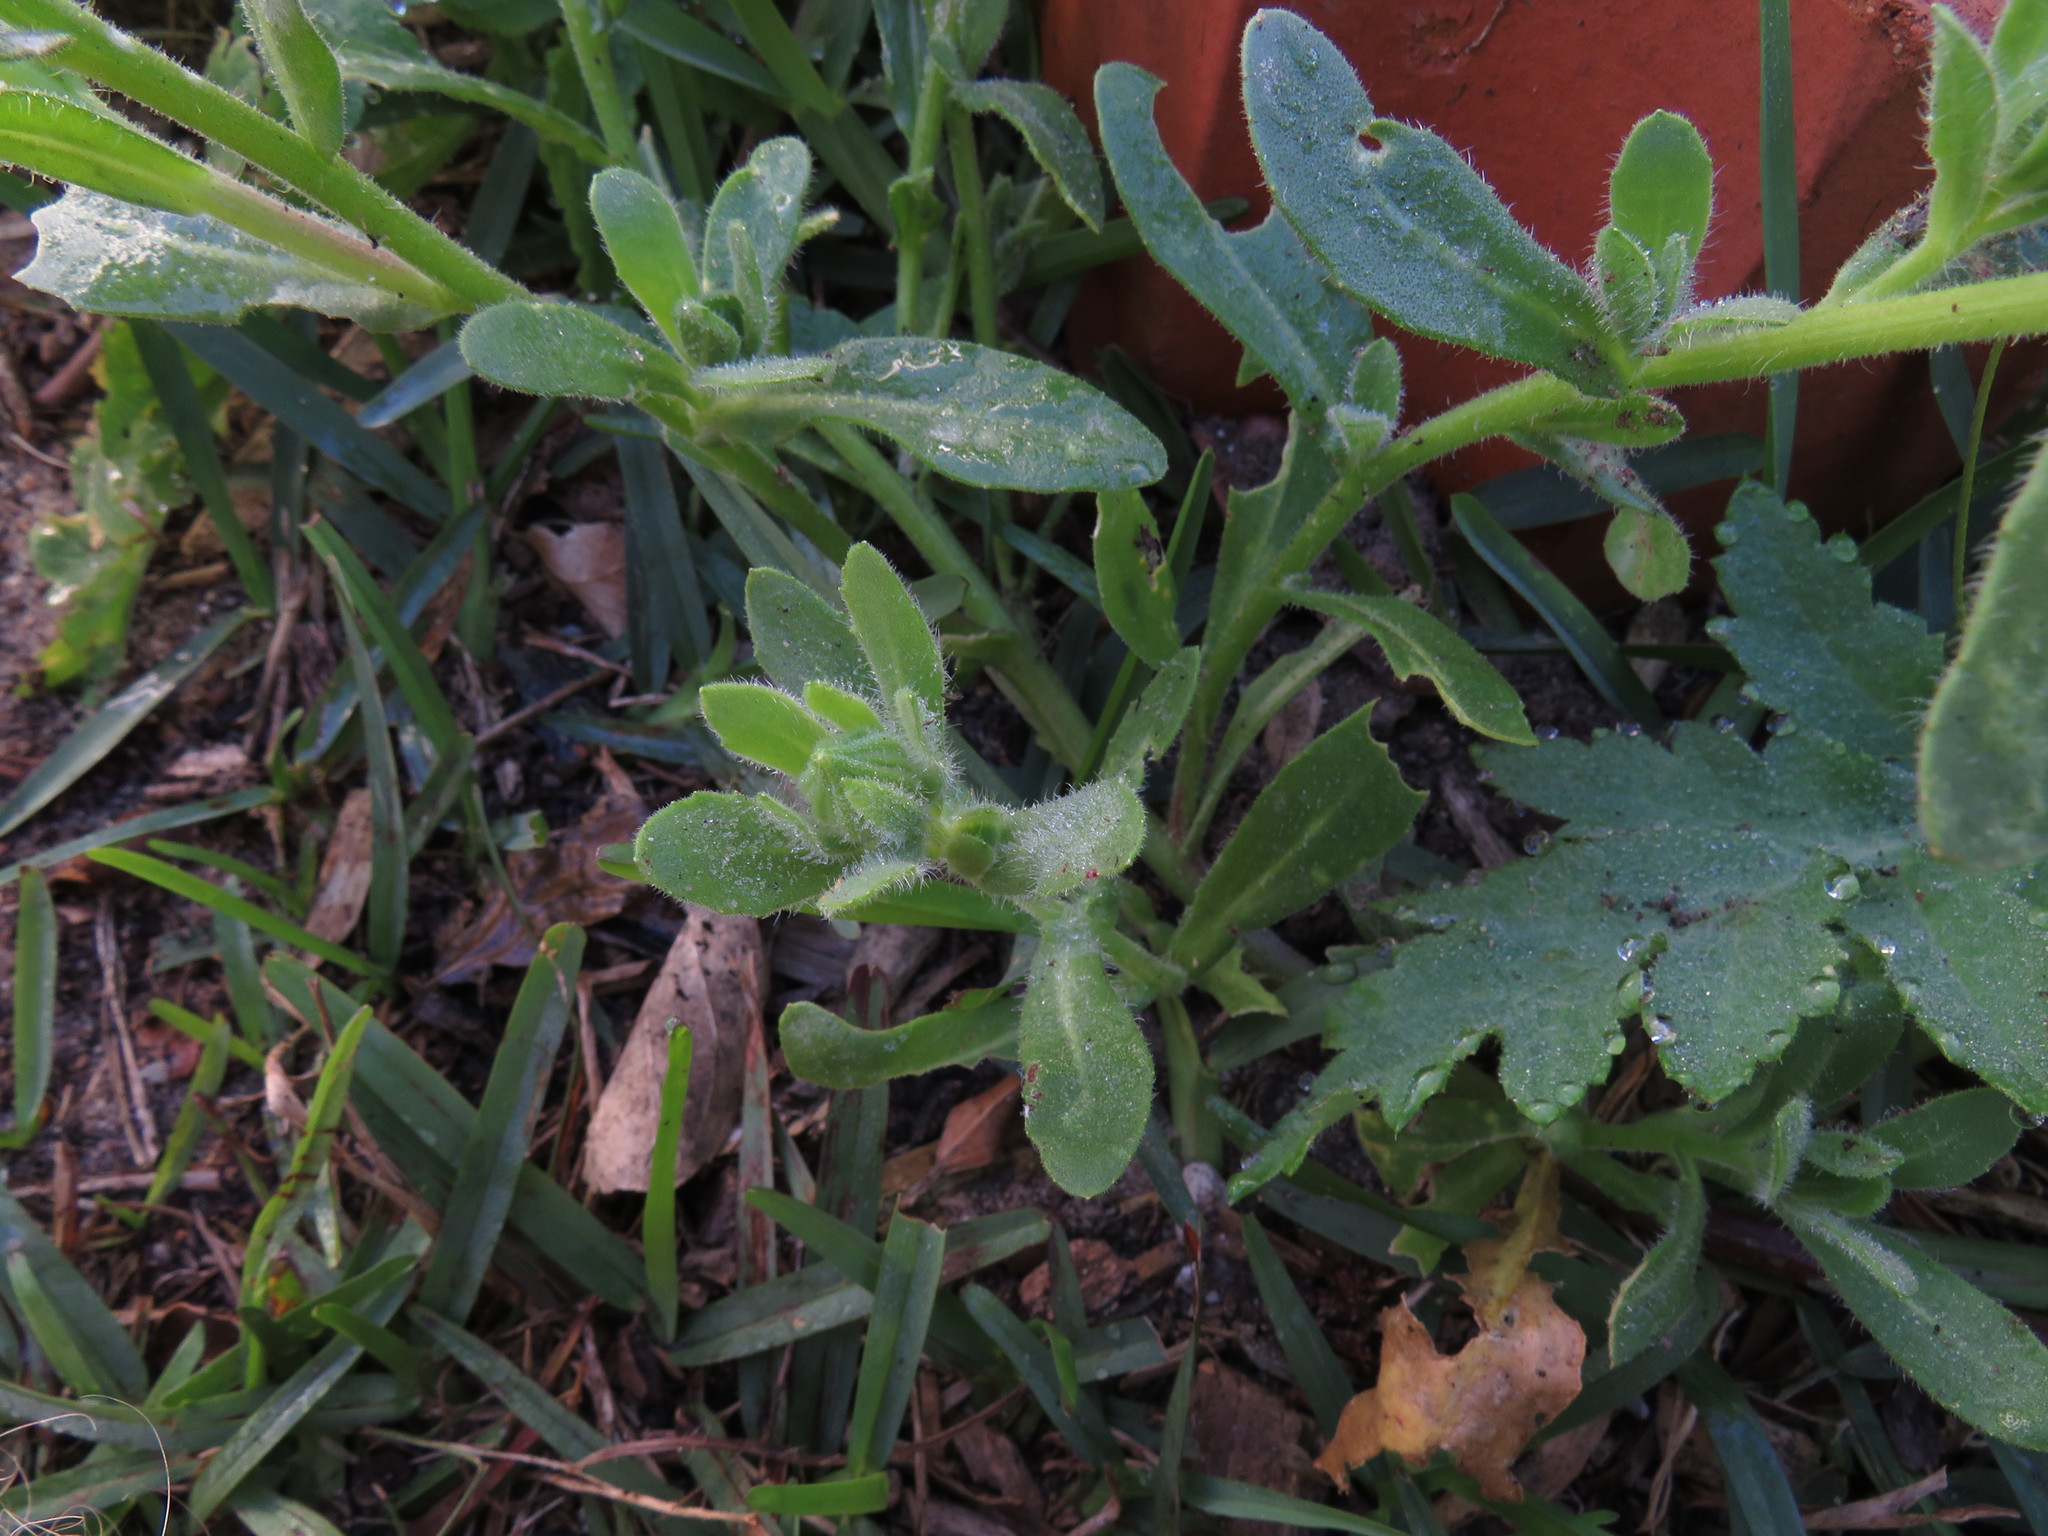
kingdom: Plantae
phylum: Tracheophyta
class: Magnoliopsida
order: Asterales
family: Asteraceae
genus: Dimorphotheca
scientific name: Dimorphotheca pluvialis
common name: Weather prophet
